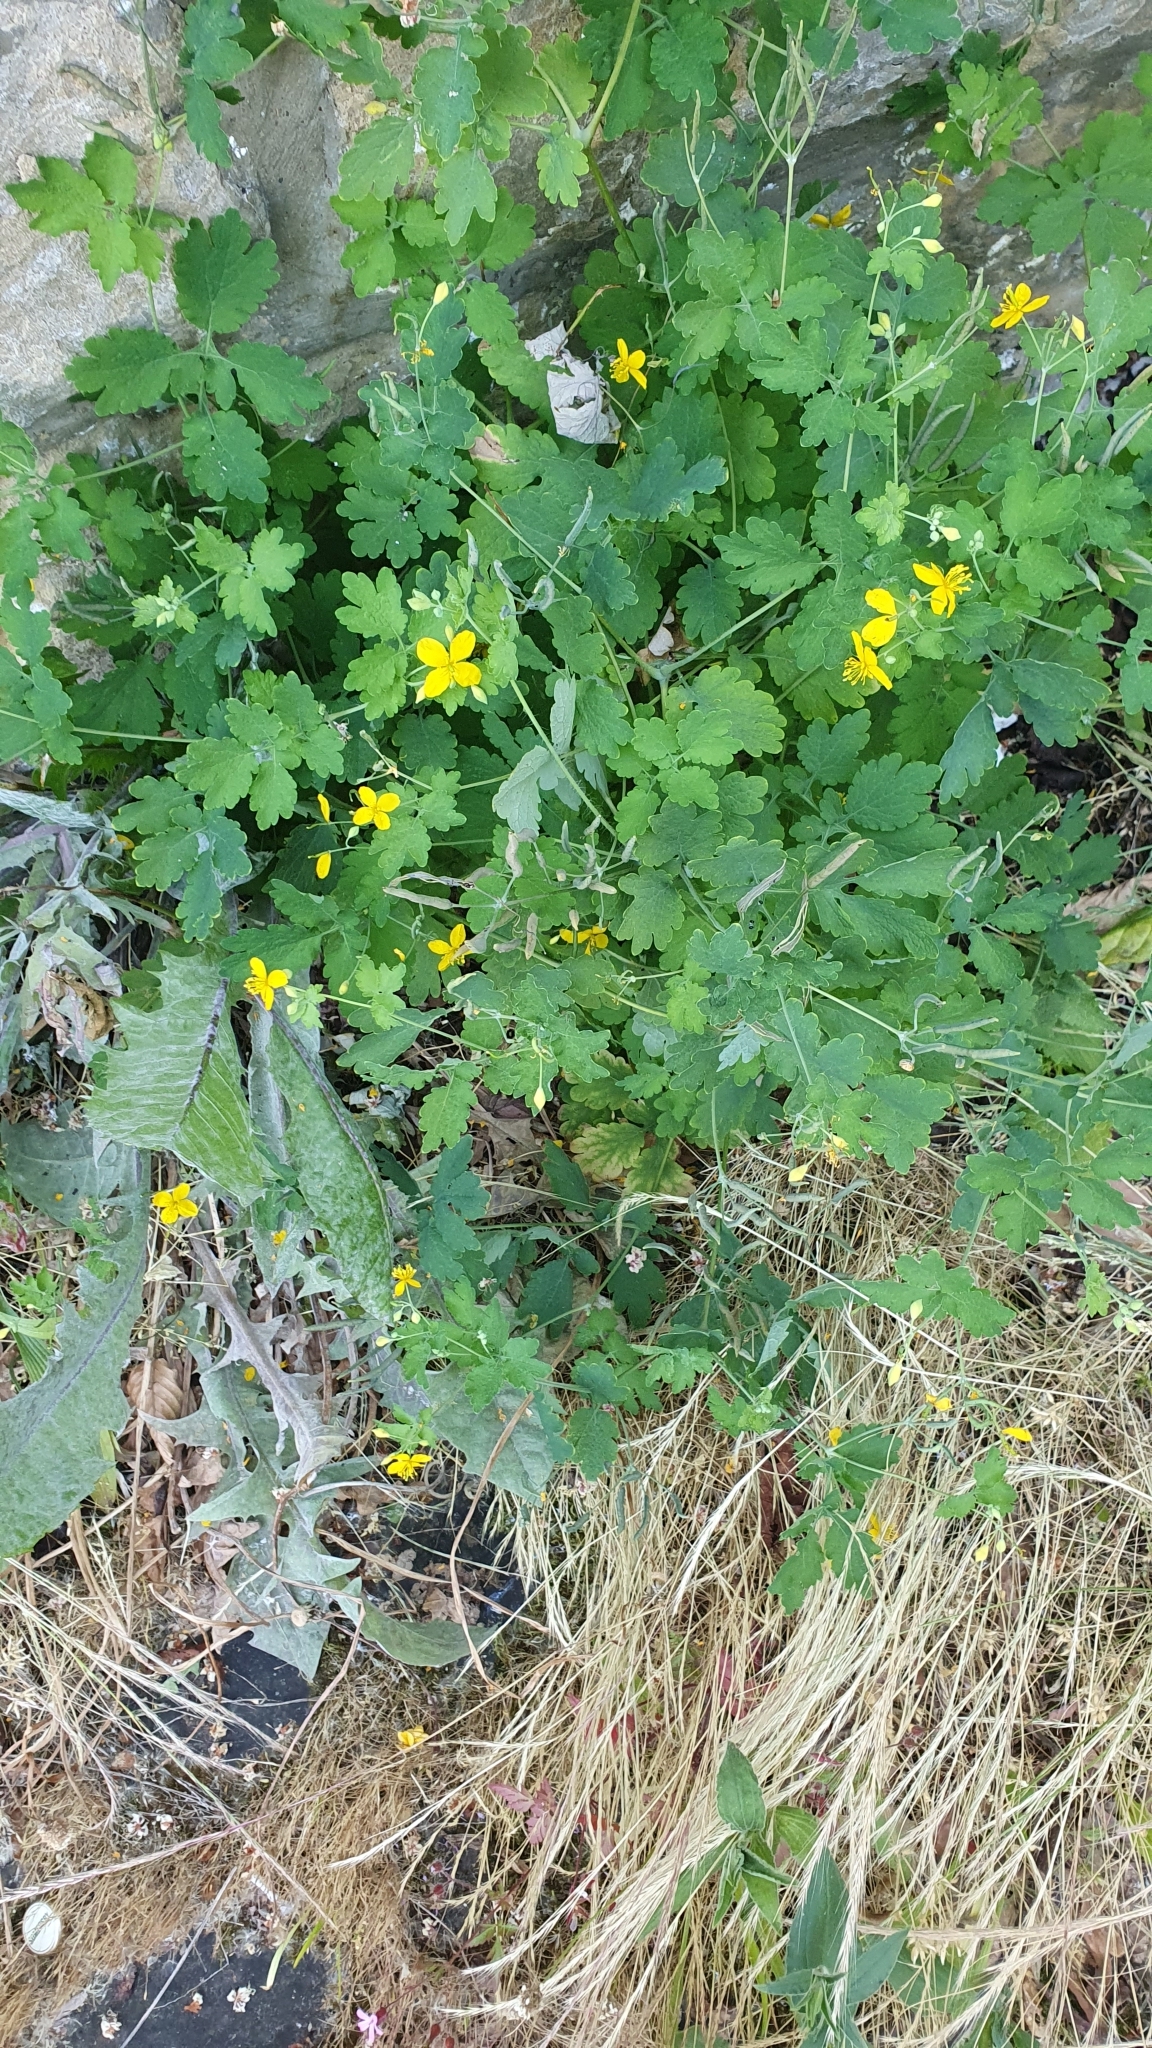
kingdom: Plantae
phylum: Tracheophyta
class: Magnoliopsida
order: Ranunculales
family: Papaveraceae
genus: Chelidonium
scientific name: Chelidonium majus
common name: Greater celandine
